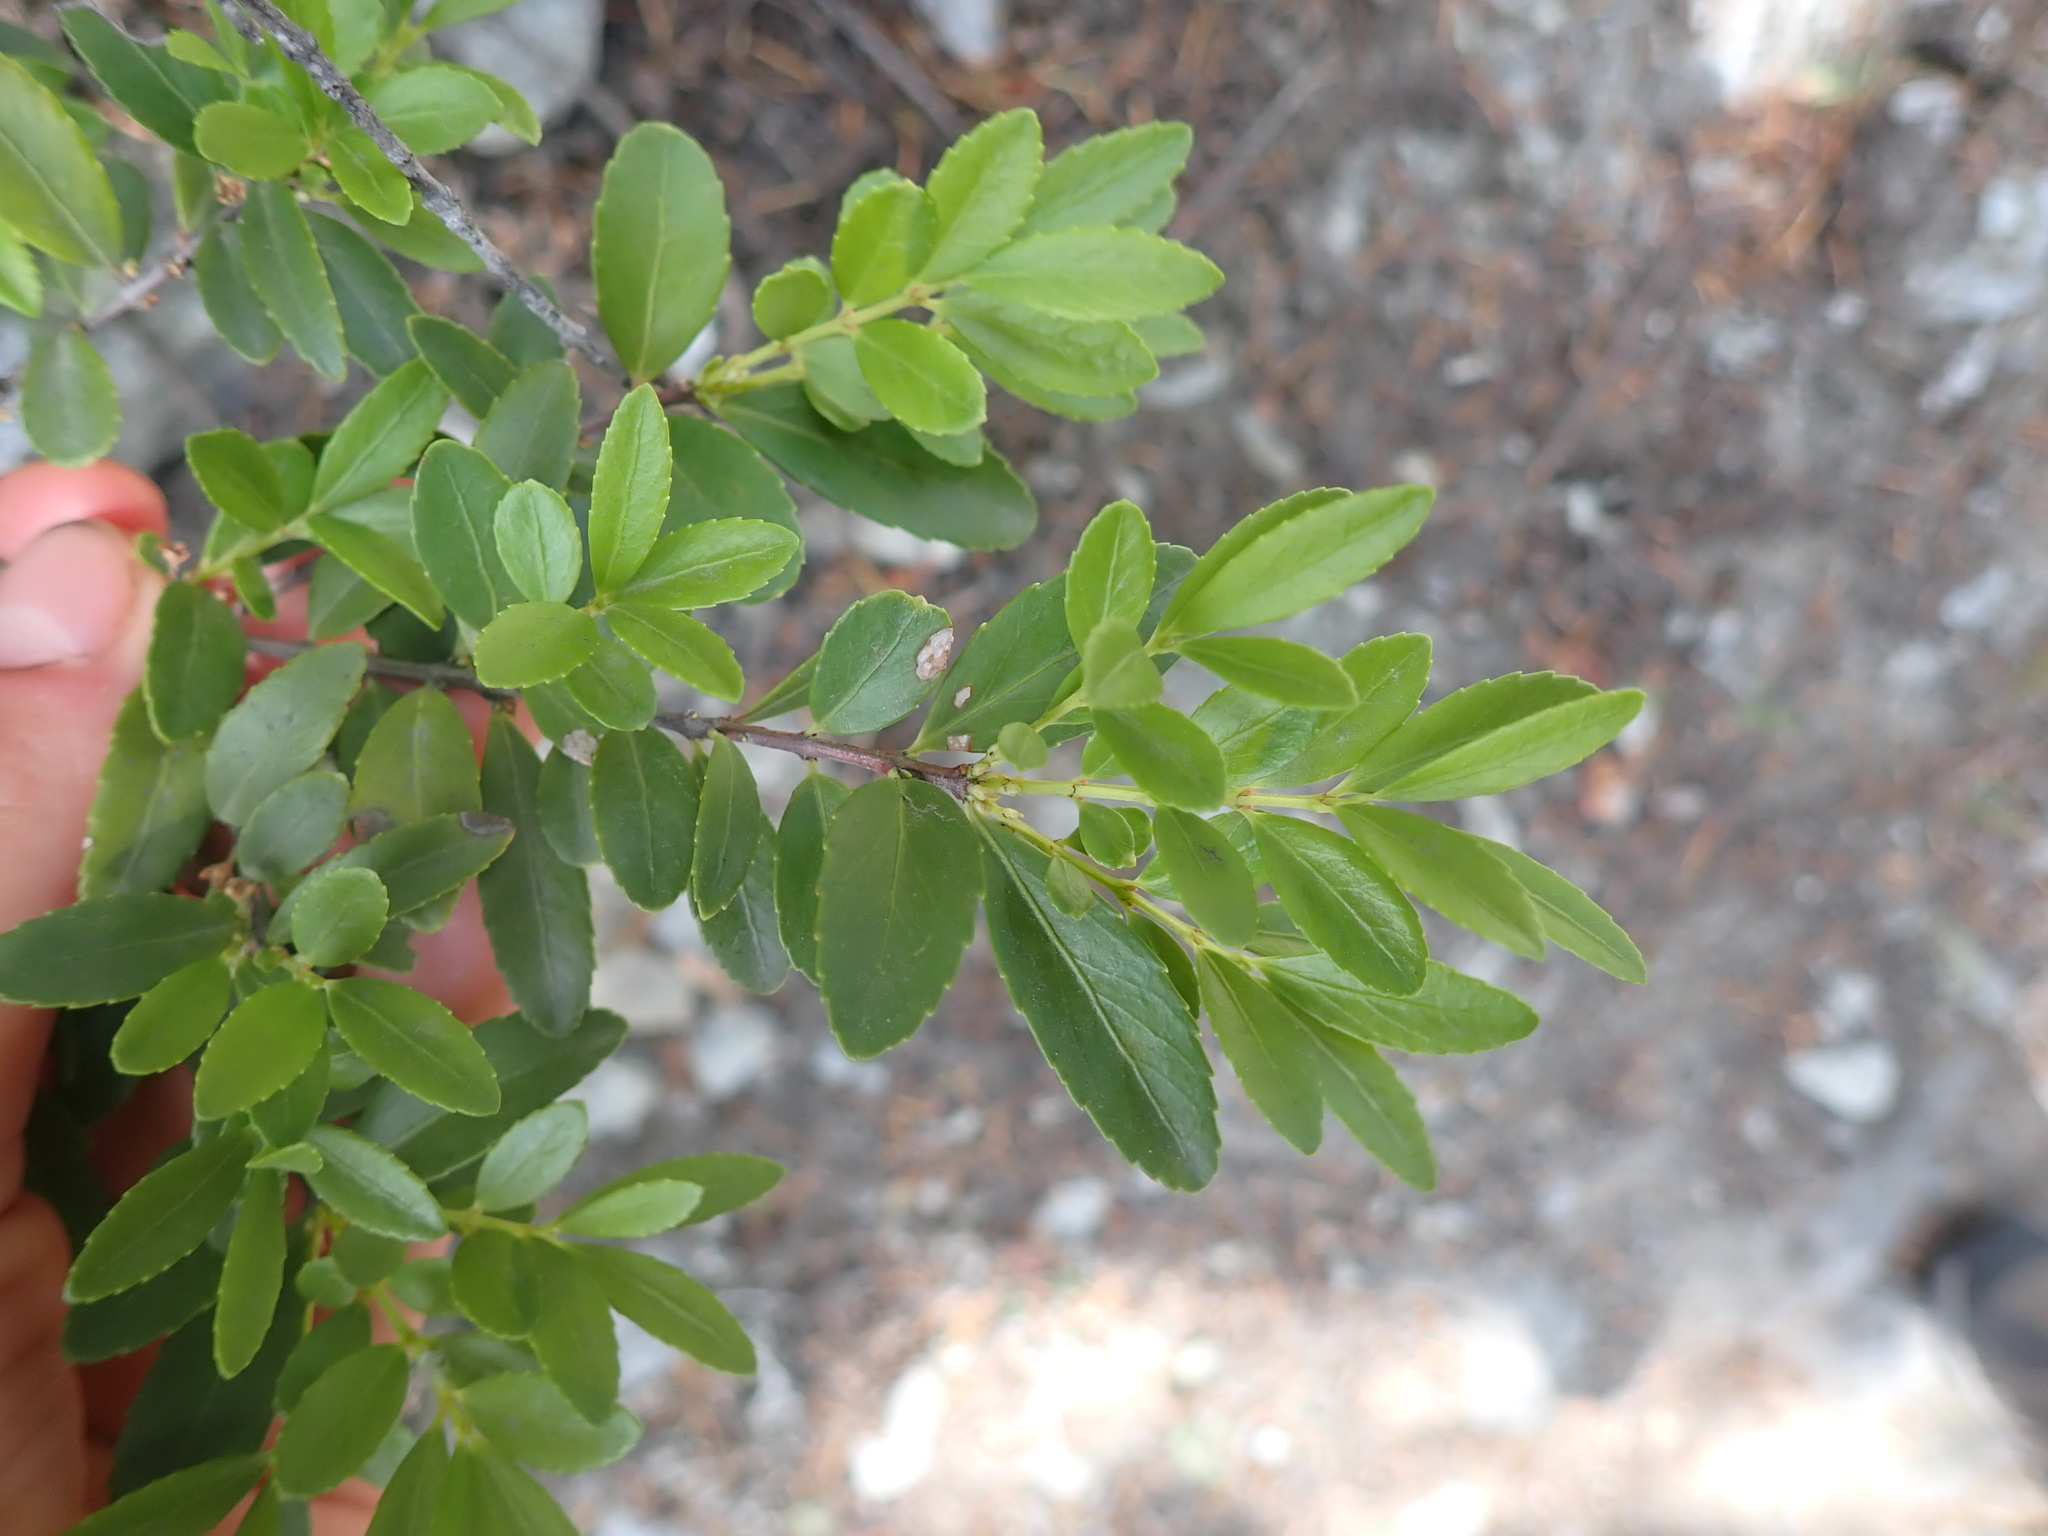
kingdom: Plantae
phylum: Tracheophyta
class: Magnoliopsida
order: Celastrales
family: Celastraceae
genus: Paxistima
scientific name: Paxistima myrsinites
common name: Mountain-lover
